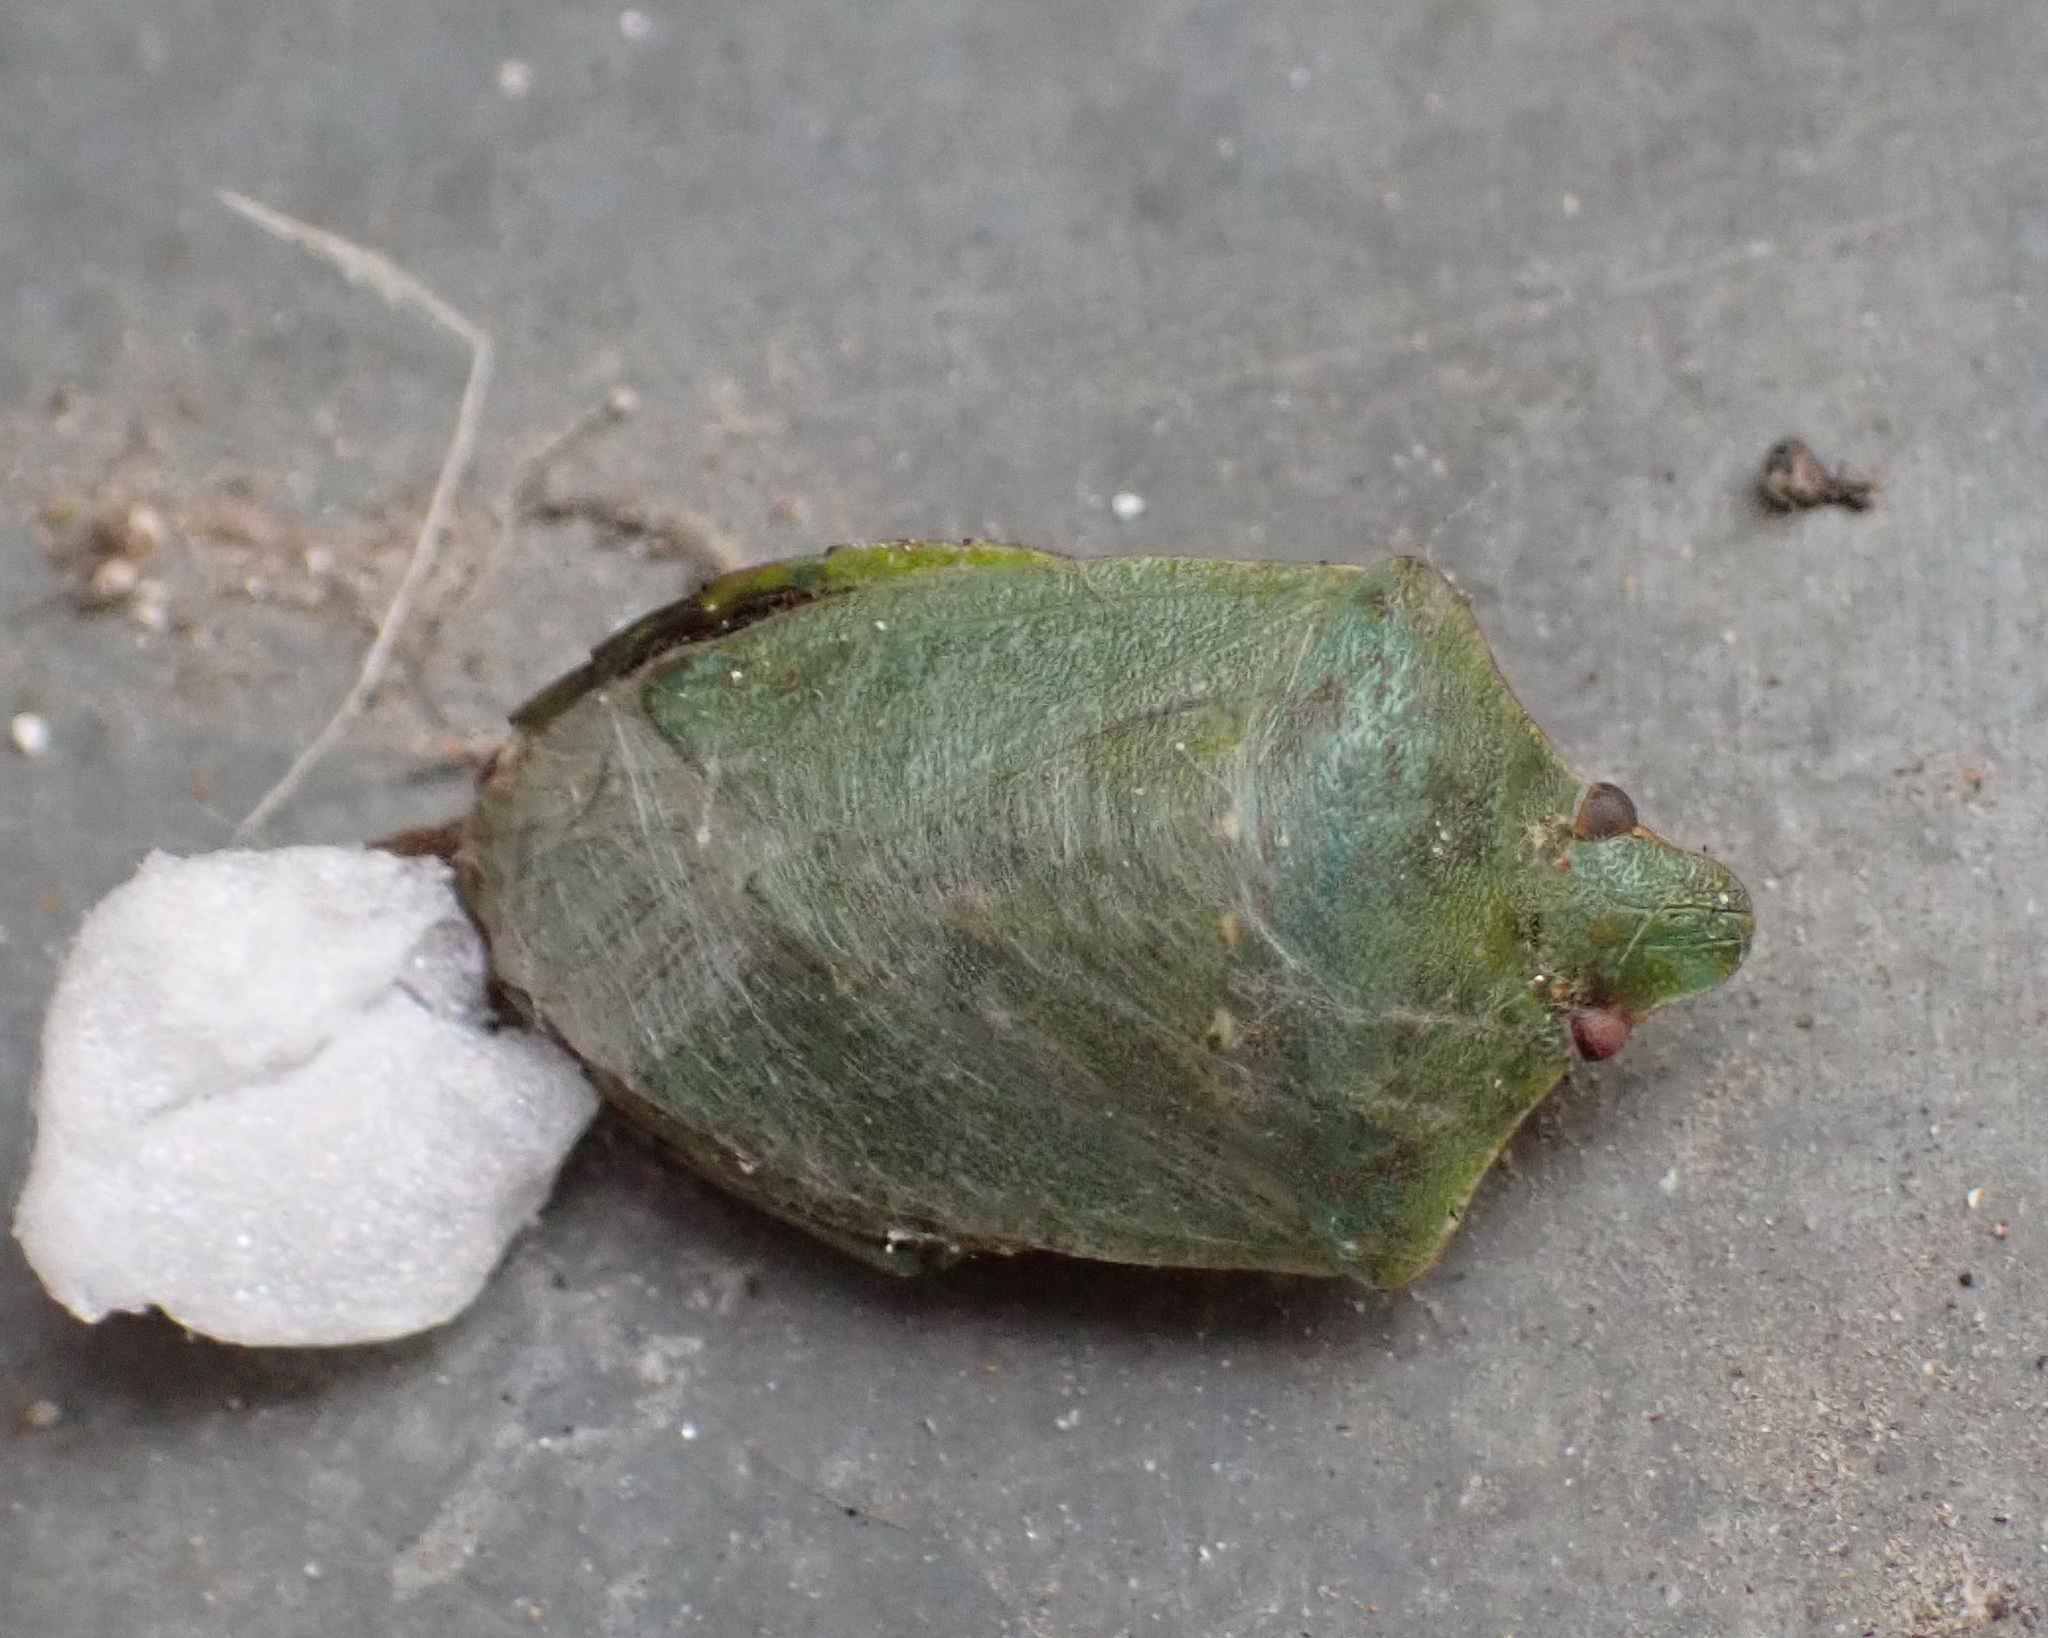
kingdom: Animalia
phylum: Arthropoda
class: Insecta
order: Hemiptera
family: Pentatomidae
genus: Nezara
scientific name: Nezara viridula
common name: Southern green stink bug
